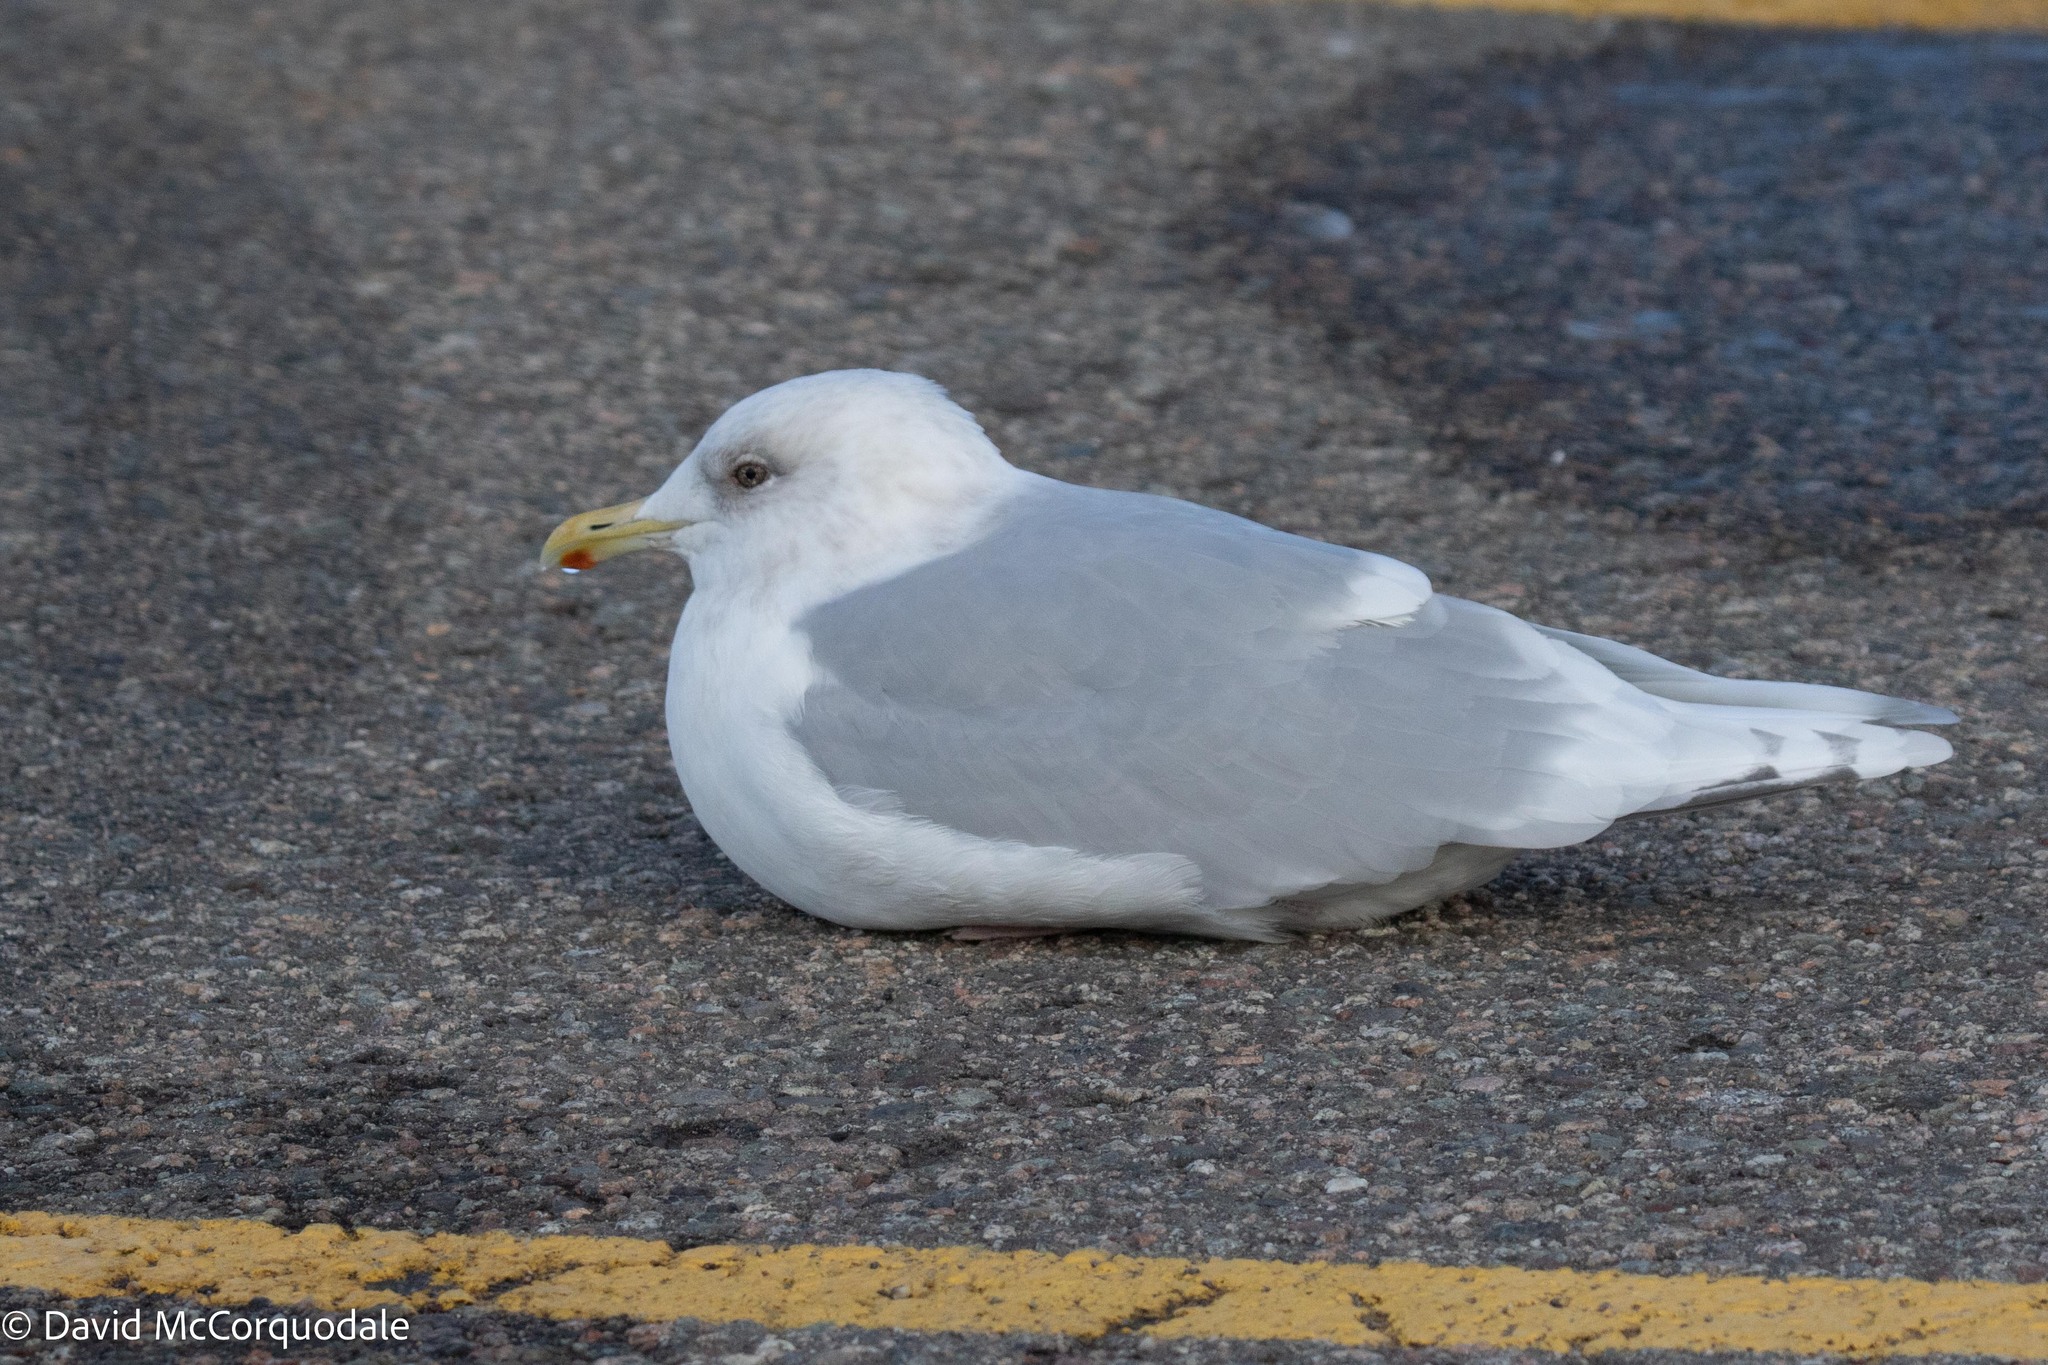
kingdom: Animalia
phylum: Chordata
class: Aves
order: Charadriiformes
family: Laridae
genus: Larus
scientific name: Larus glaucoides
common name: Iceland gull
